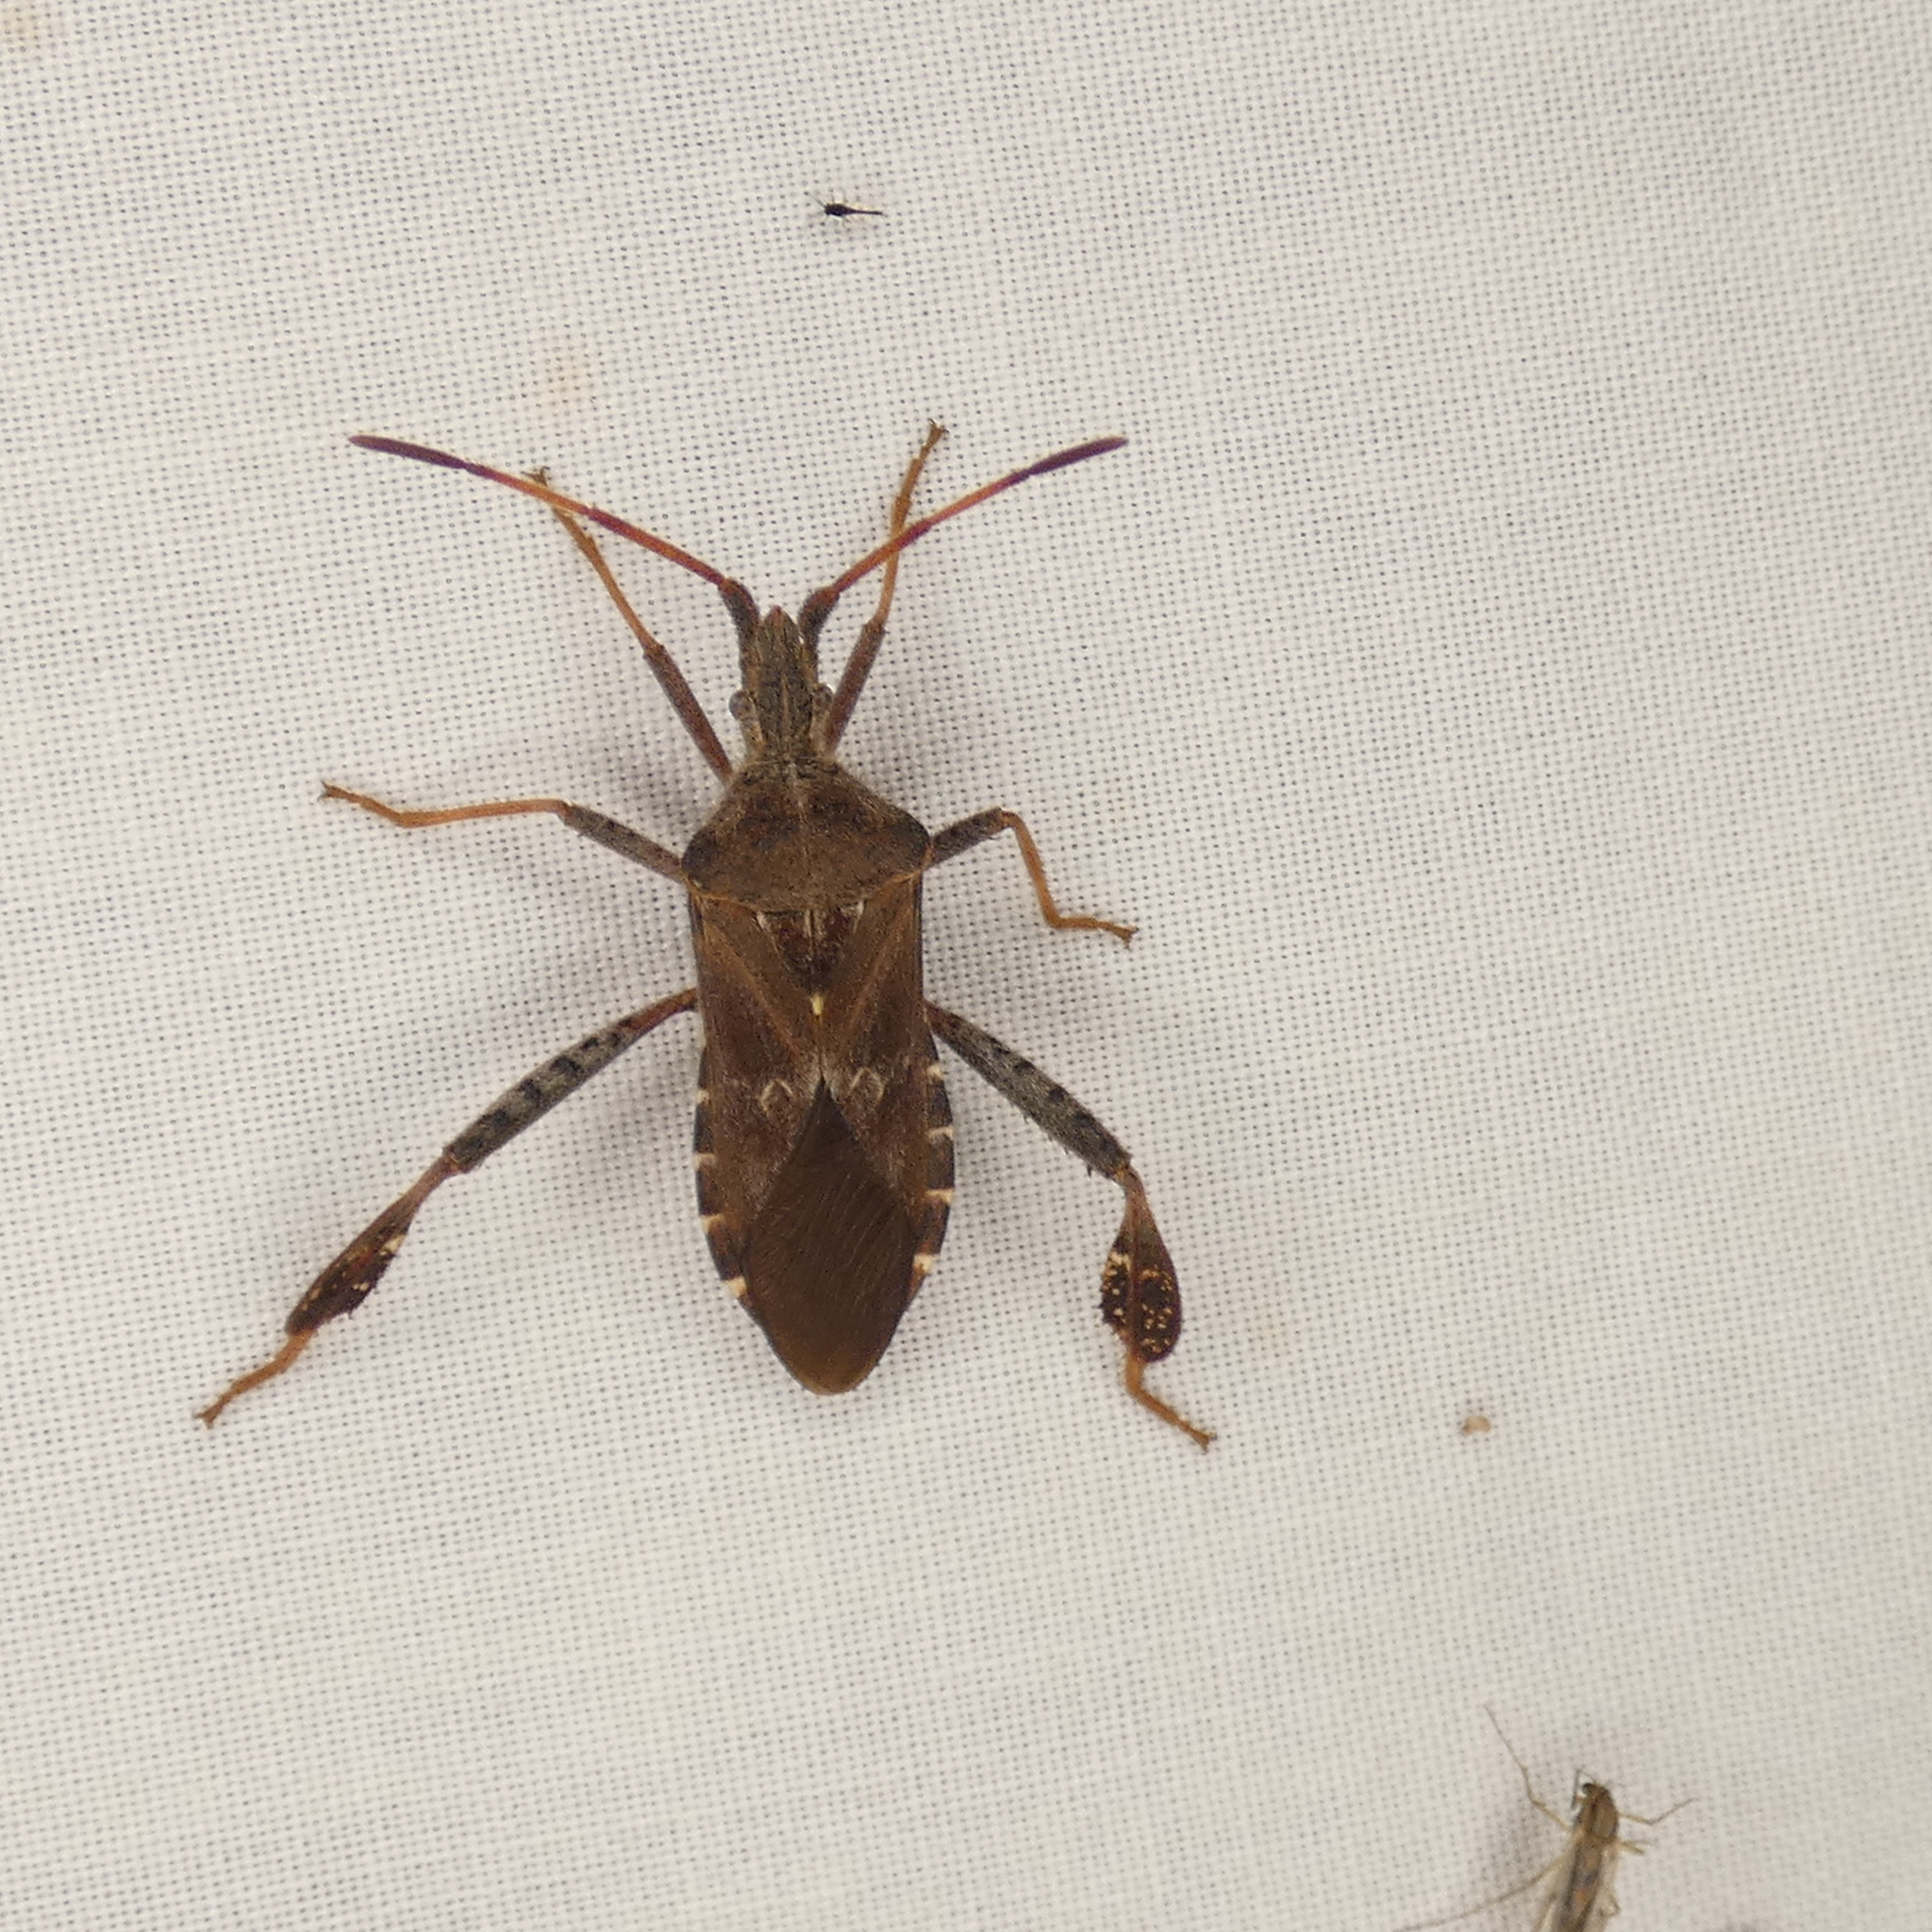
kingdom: Animalia
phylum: Arthropoda
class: Insecta
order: Hemiptera
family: Coreidae
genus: Leptoglossus
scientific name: Leptoglossus corculus
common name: Southern pine seed bug
